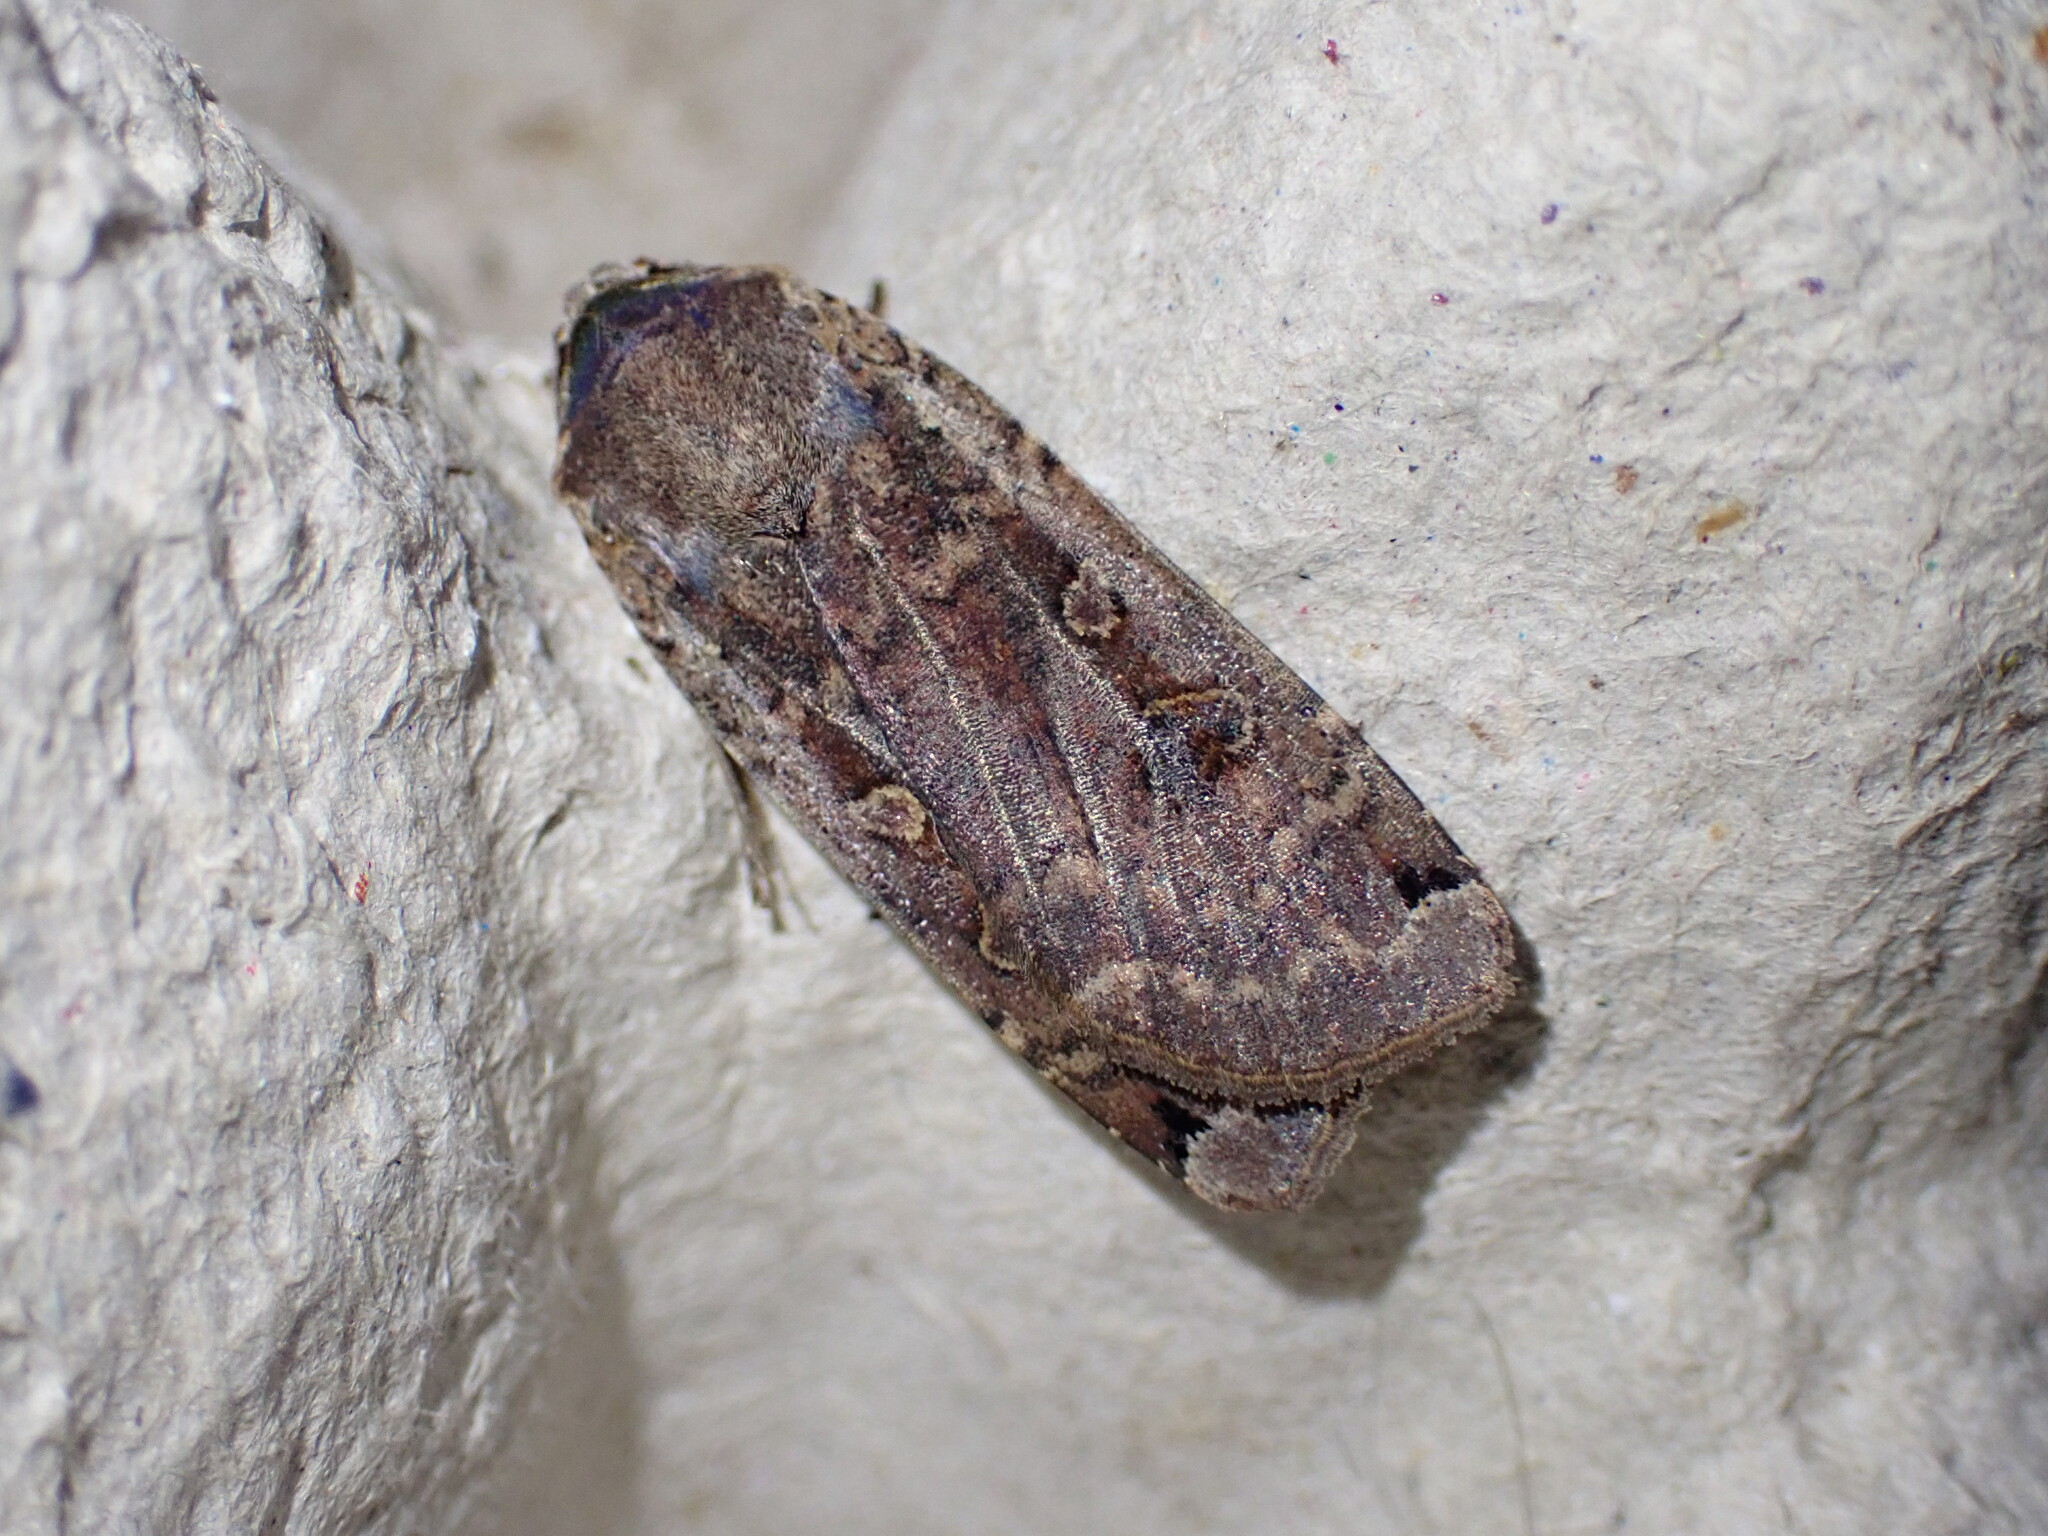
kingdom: Animalia
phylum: Arthropoda
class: Insecta
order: Lepidoptera
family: Noctuidae
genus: Noctua
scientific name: Noctua pronuba
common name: Large yellow underwing
